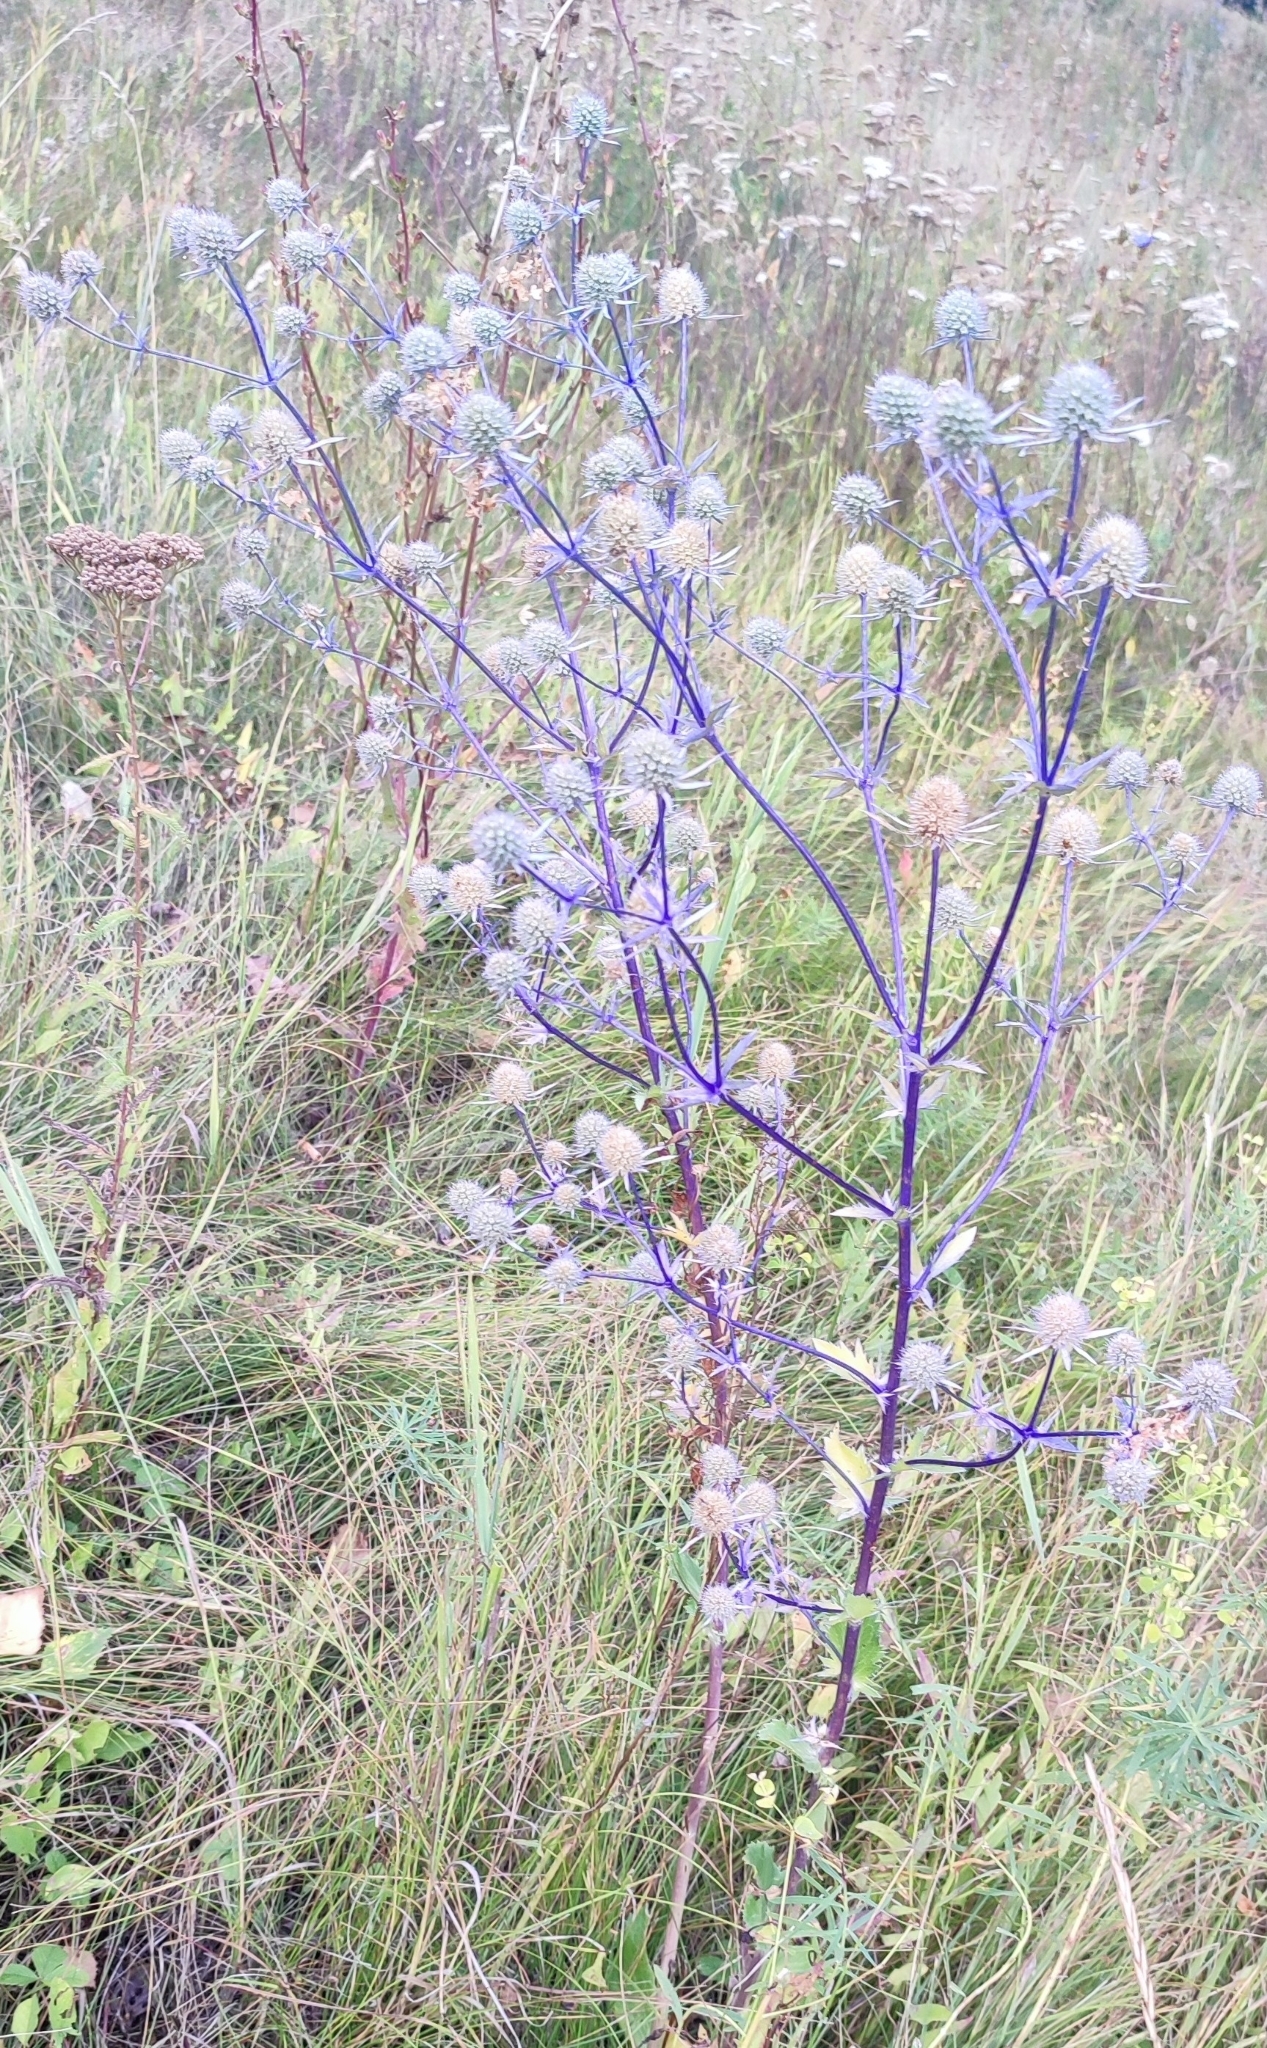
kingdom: Plantae
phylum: Tracheophyta
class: Magnoliopsida
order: Apiales
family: Apiaceae
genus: Eryngium
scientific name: Eryngium planum
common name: Blue eryngo
